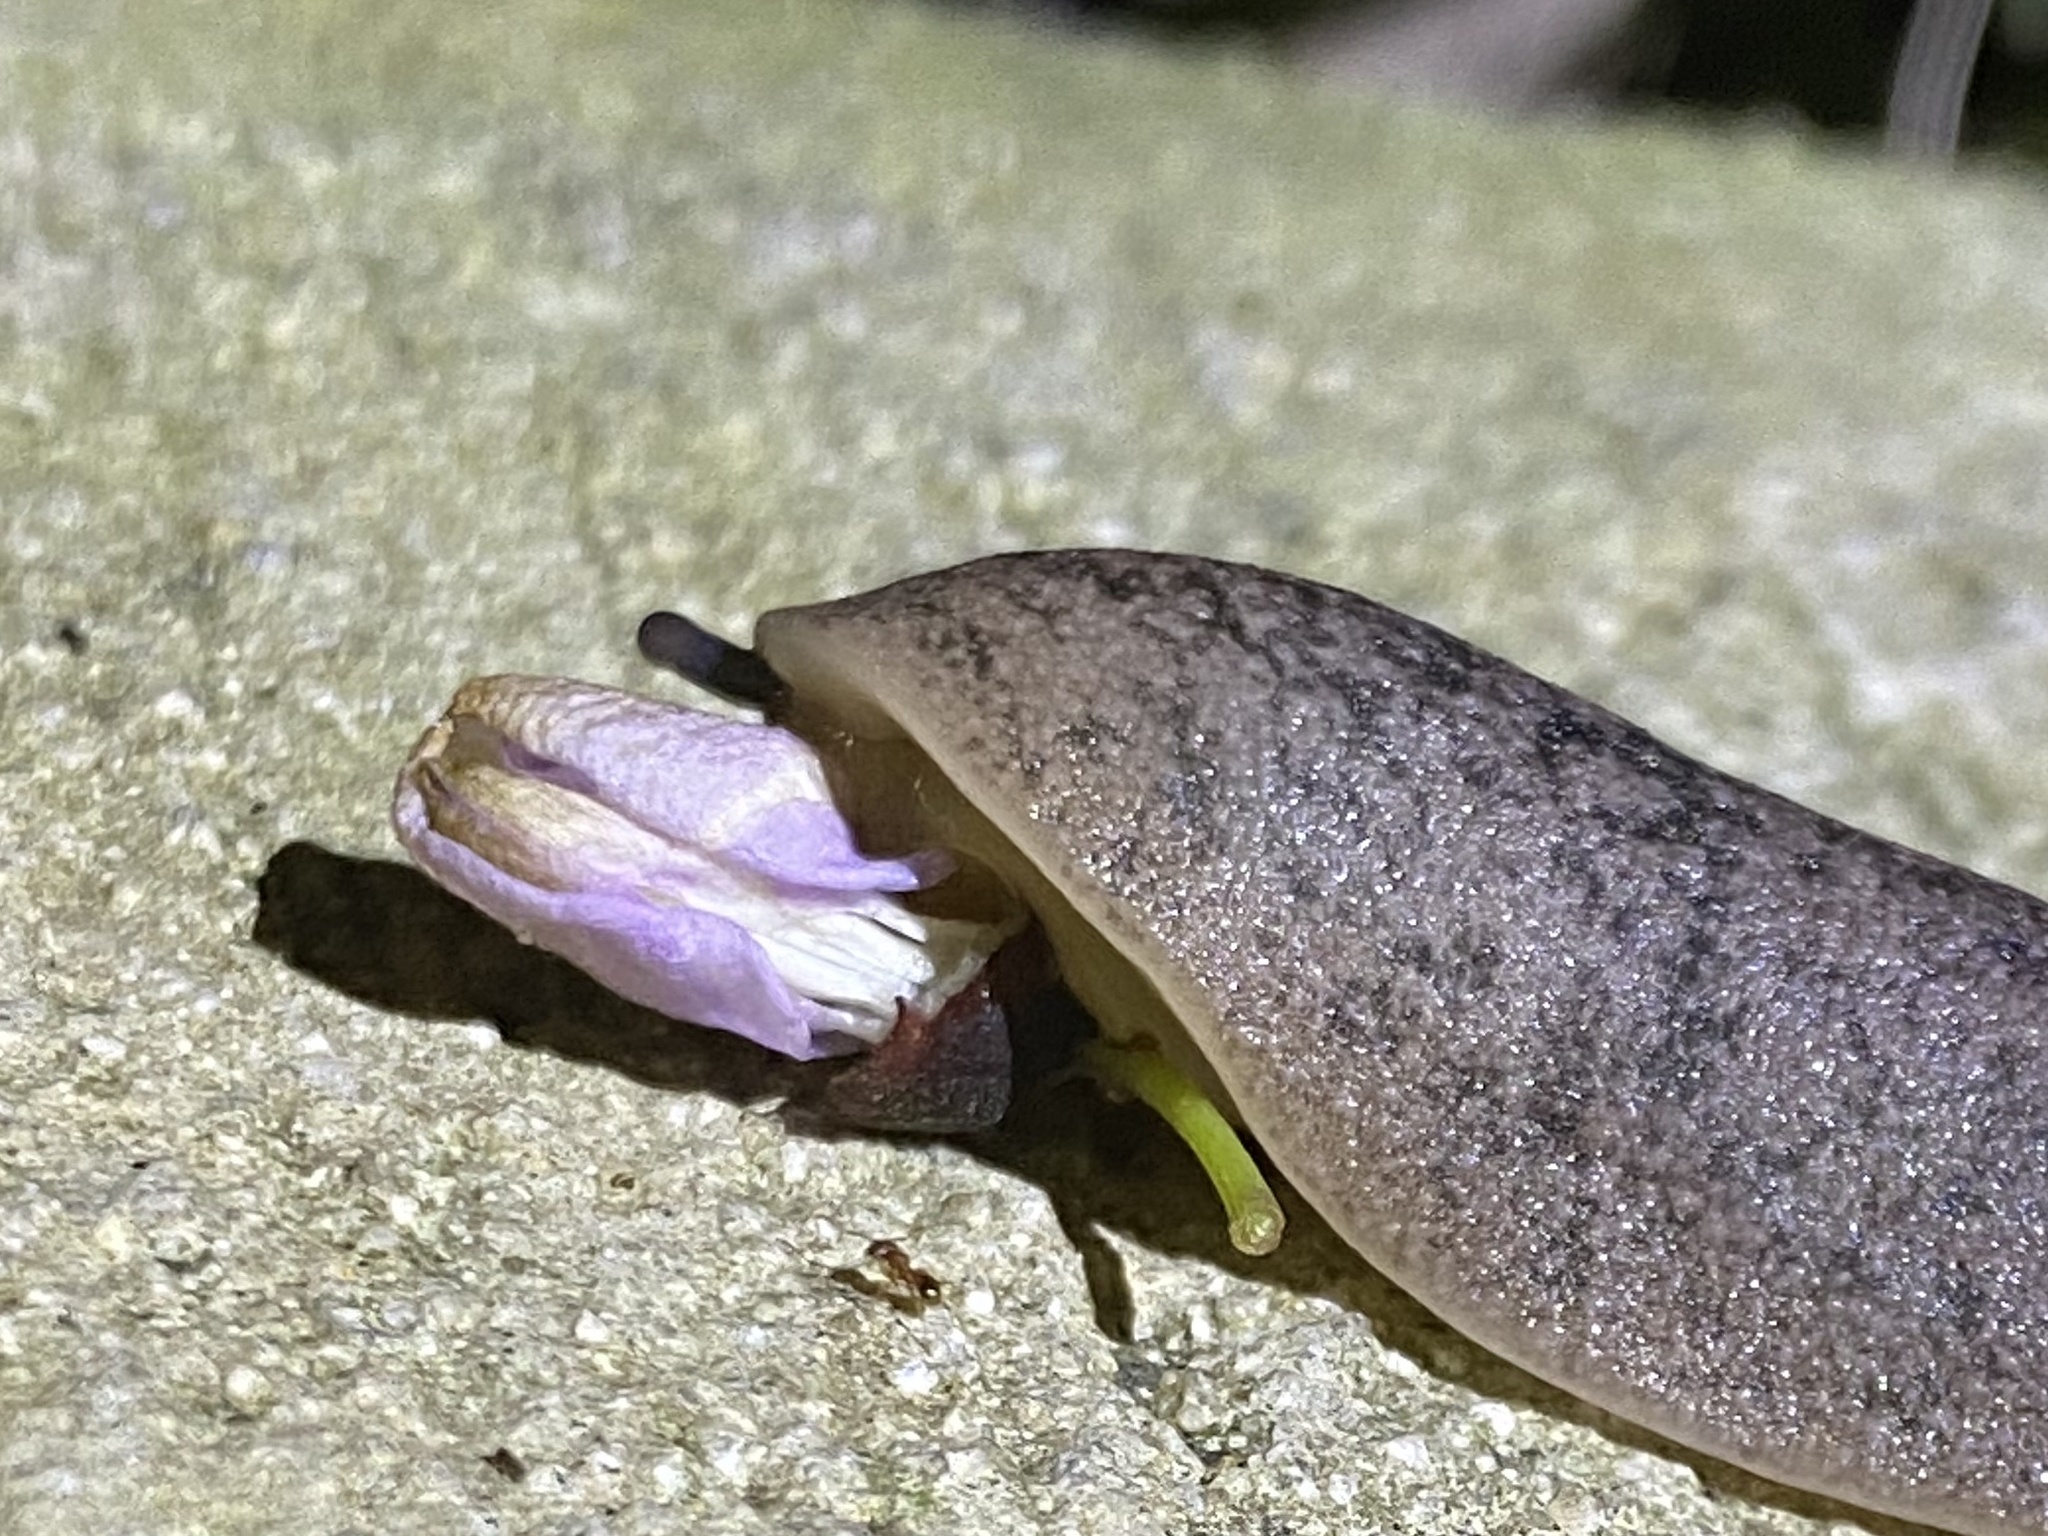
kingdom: Animalia
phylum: Mollusca
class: Gastropoda
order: Systellommatophora
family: Veronicellidae
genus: Leidyula
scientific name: Leidyula floridana
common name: Florida leatherleaf
